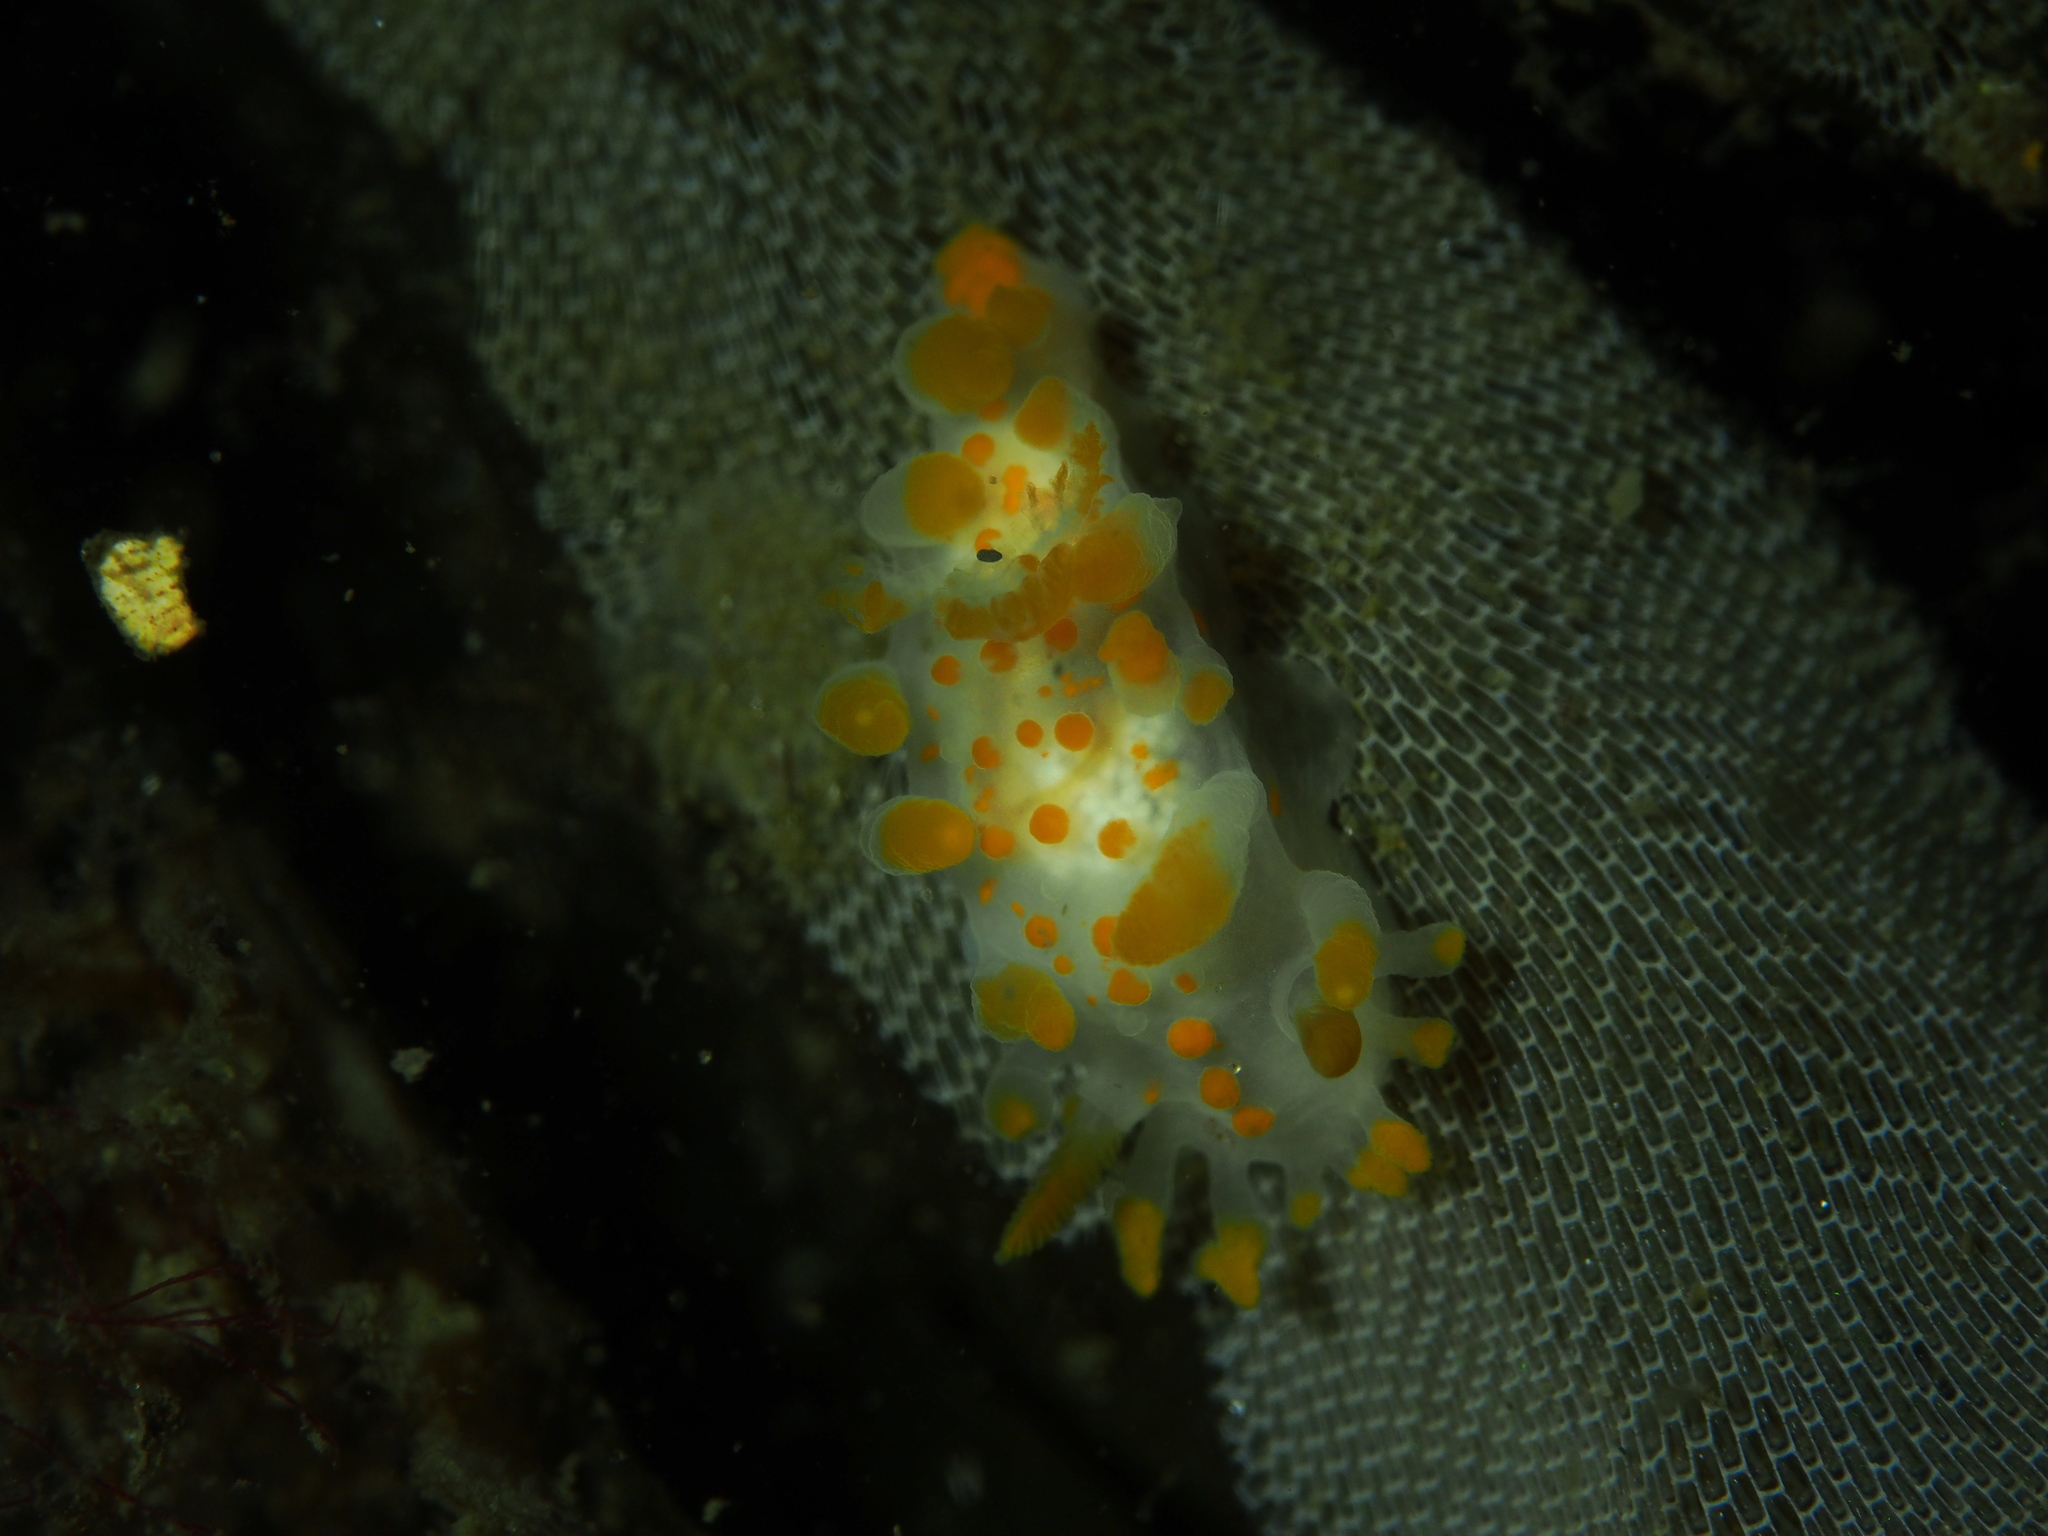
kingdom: Animalia
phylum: Mollusca
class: Gastropoda
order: Nudibranchia
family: Polyceridae
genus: Limacia
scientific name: Limacia clavigera
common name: Orange-clubbed sea slug
